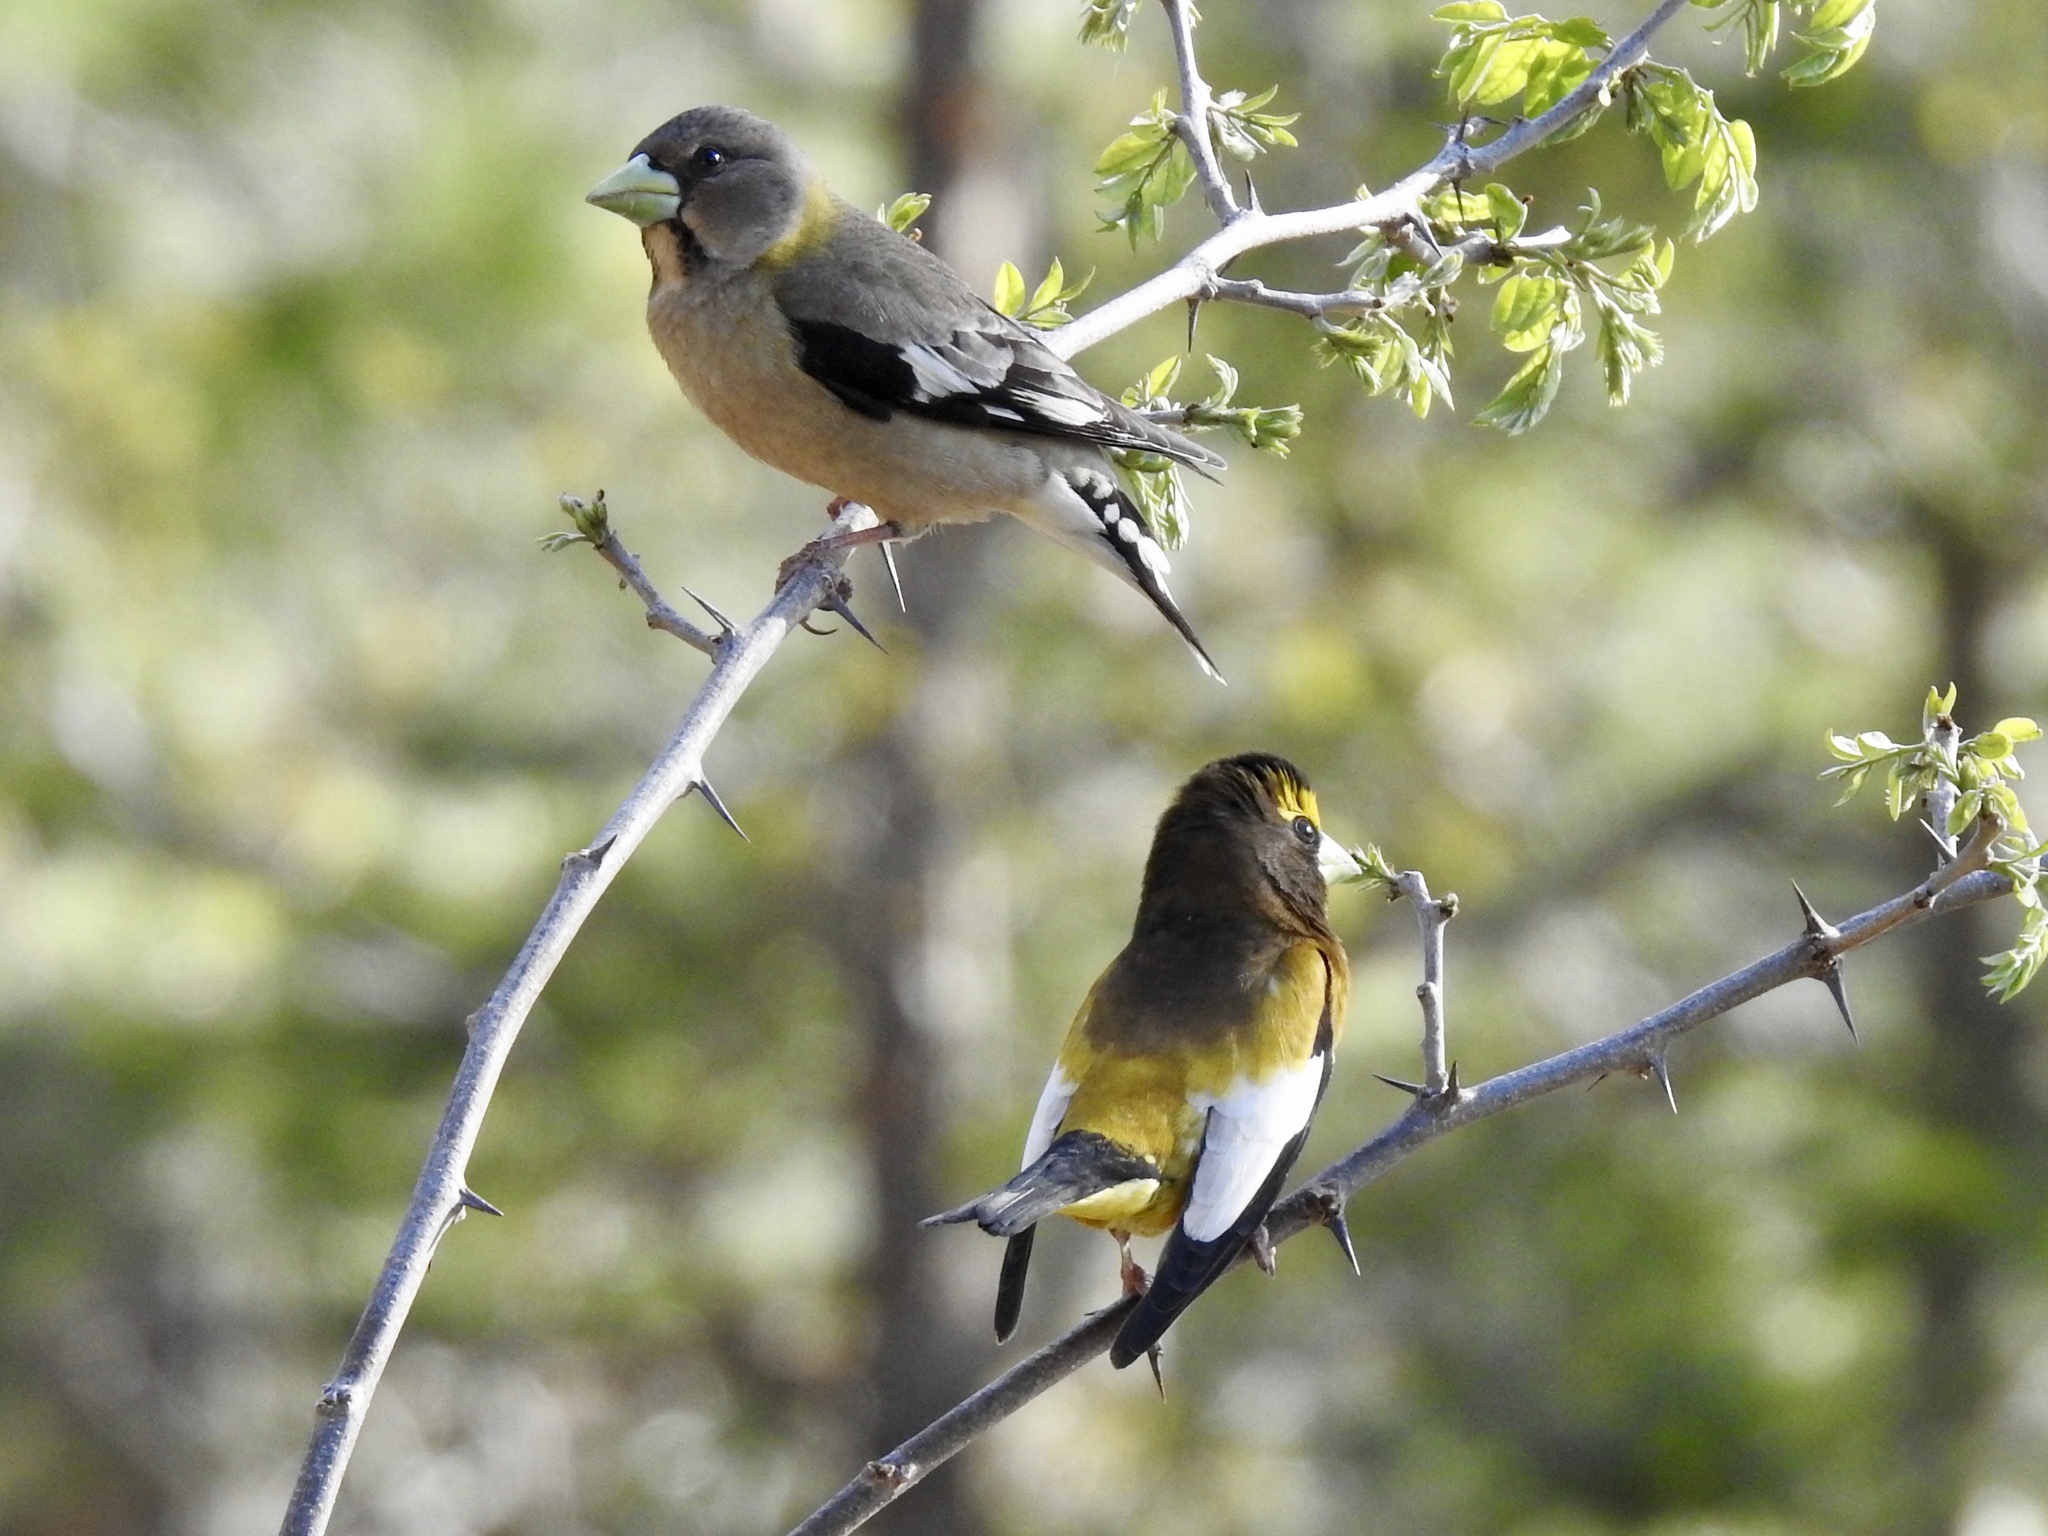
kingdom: Animalia
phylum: Chordata
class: Aves
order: Passeriformes
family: Fringillidae
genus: Hesperiphona
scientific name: Hesperiphona vespertina
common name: Evening grosbeak
